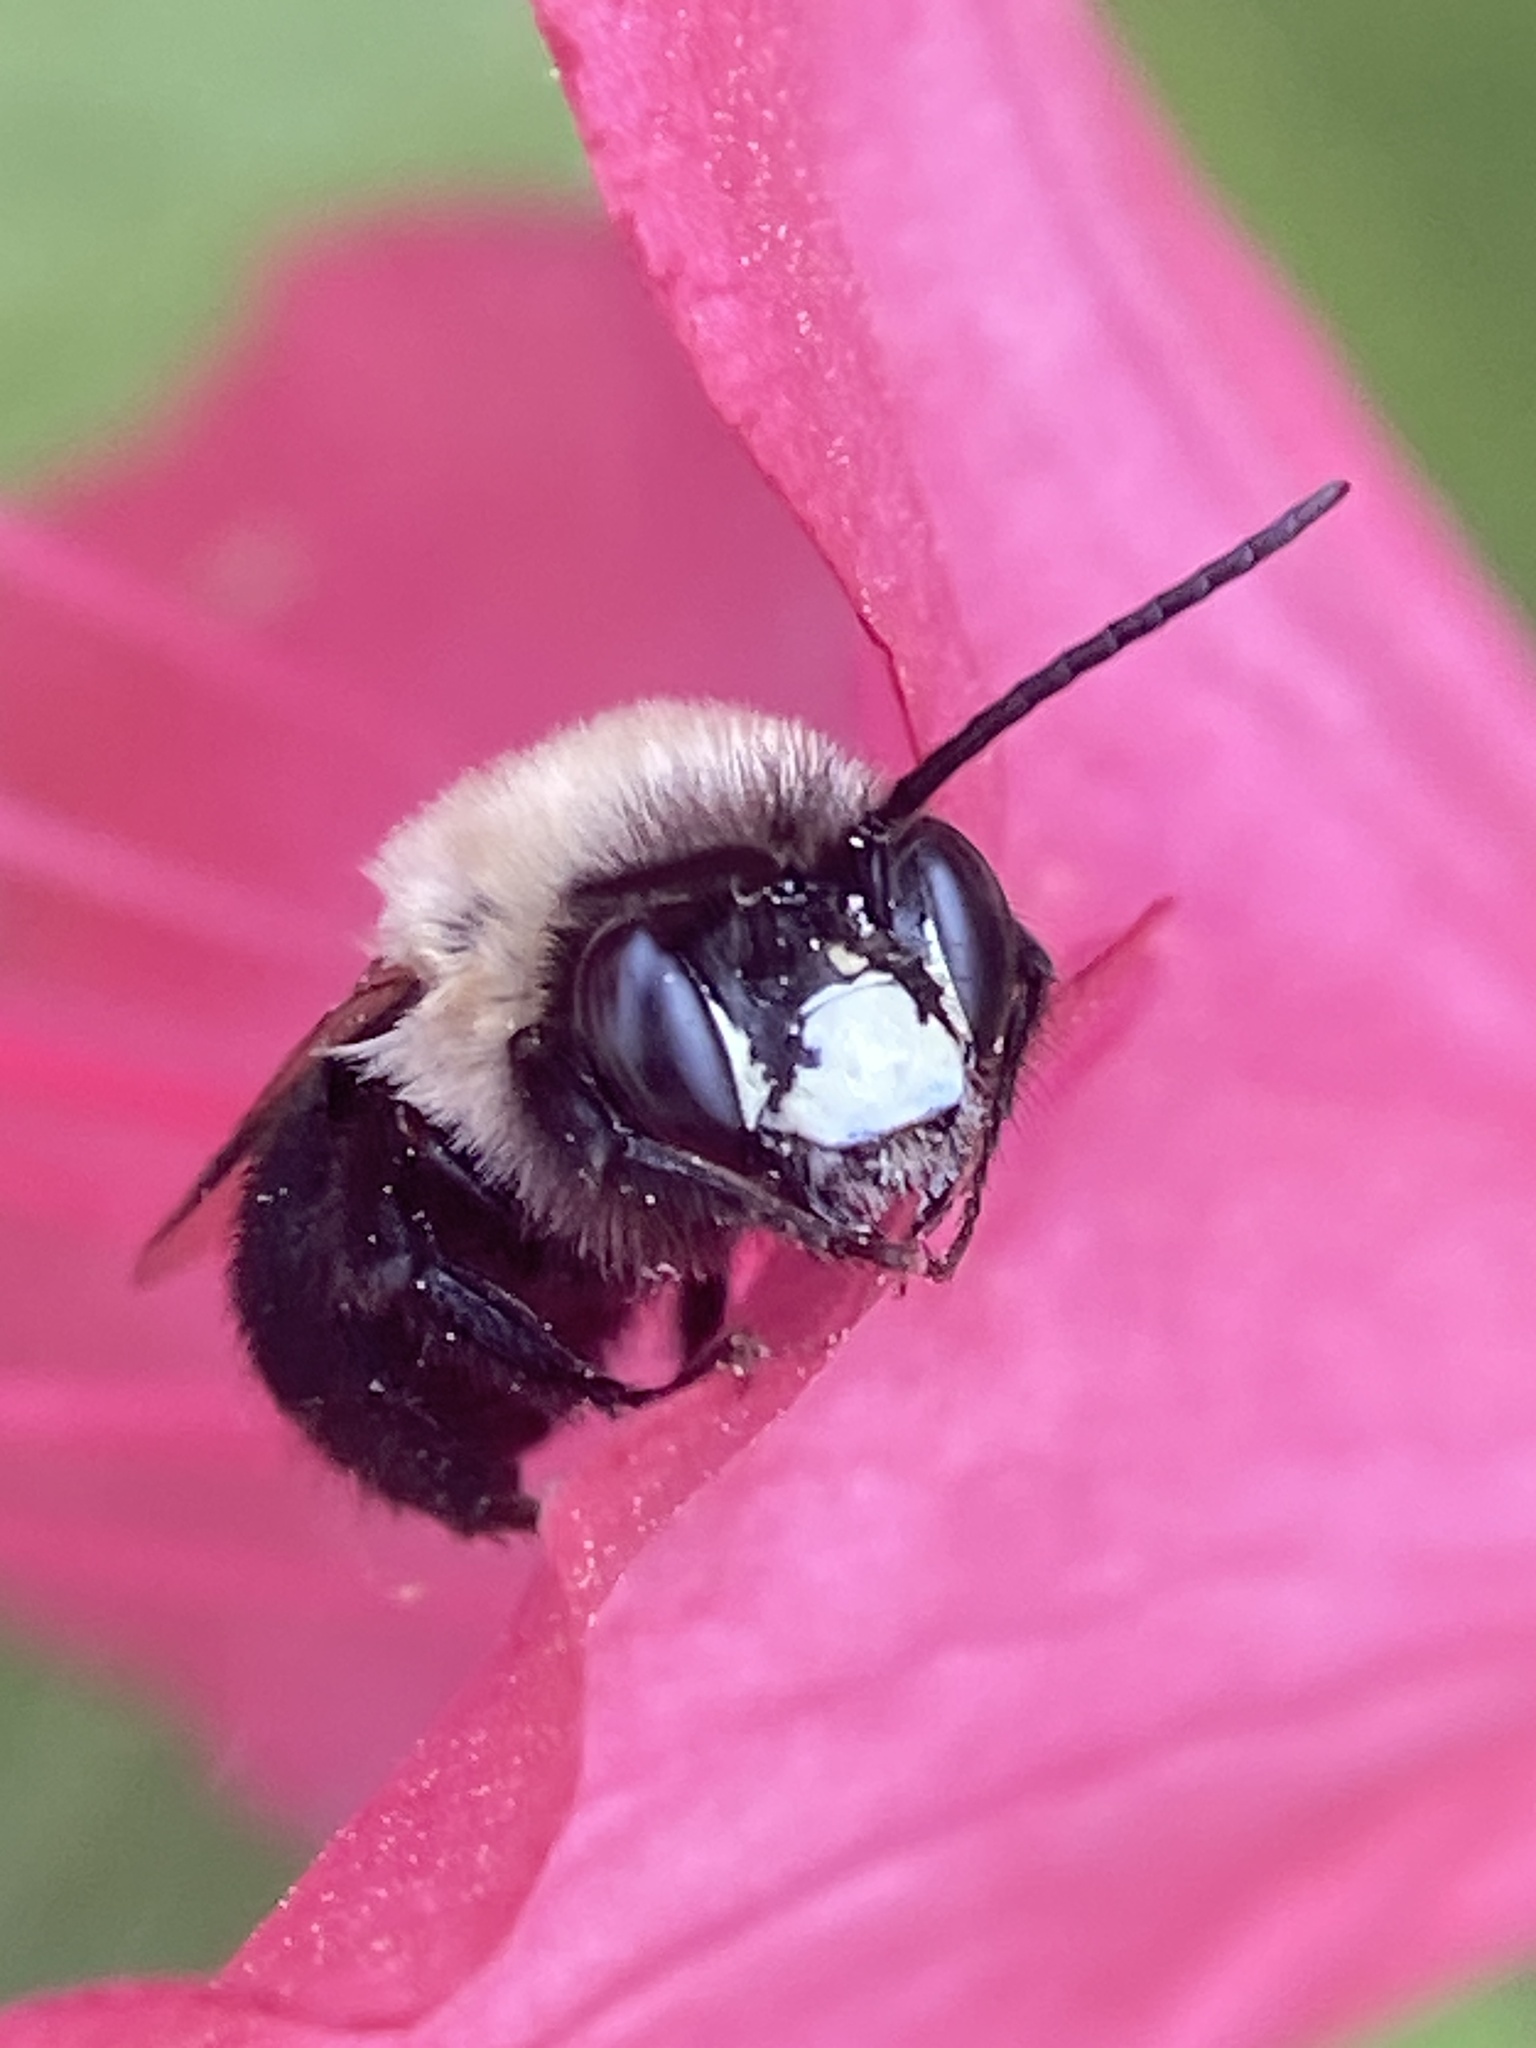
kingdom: Animalia
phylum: Arthropoda
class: Insecta
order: Hymenoptera
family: Apidae
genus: Habropoda
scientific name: Habropoda laboriosa
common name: Southeastern blueberry bee
